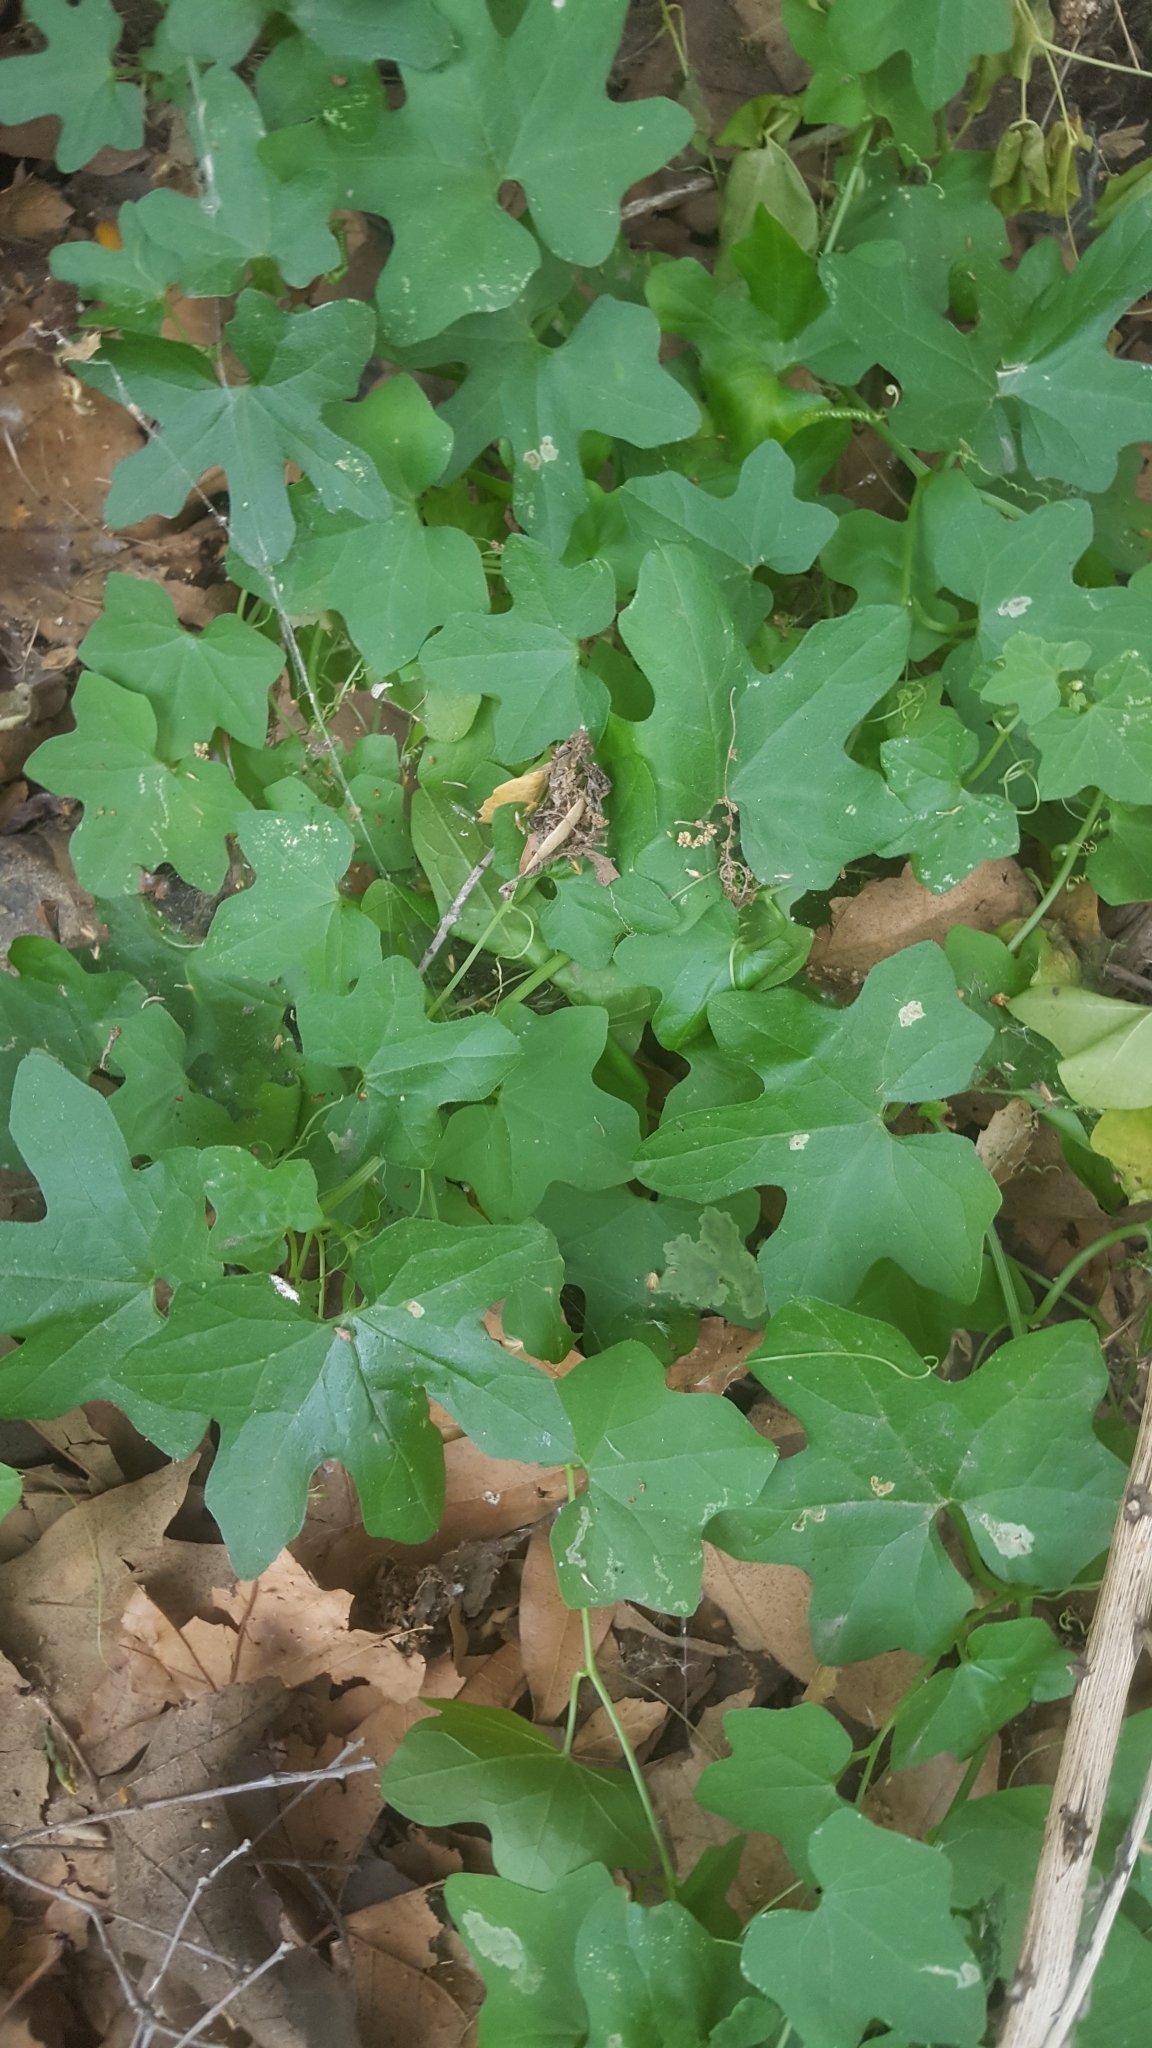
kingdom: Plantae
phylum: Tracheophyta
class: Magnoliopsida
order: Cucurbitales
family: Cucurbitaceae
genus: Marah
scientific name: Marah macrocarpa
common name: Cucamonga manroot
